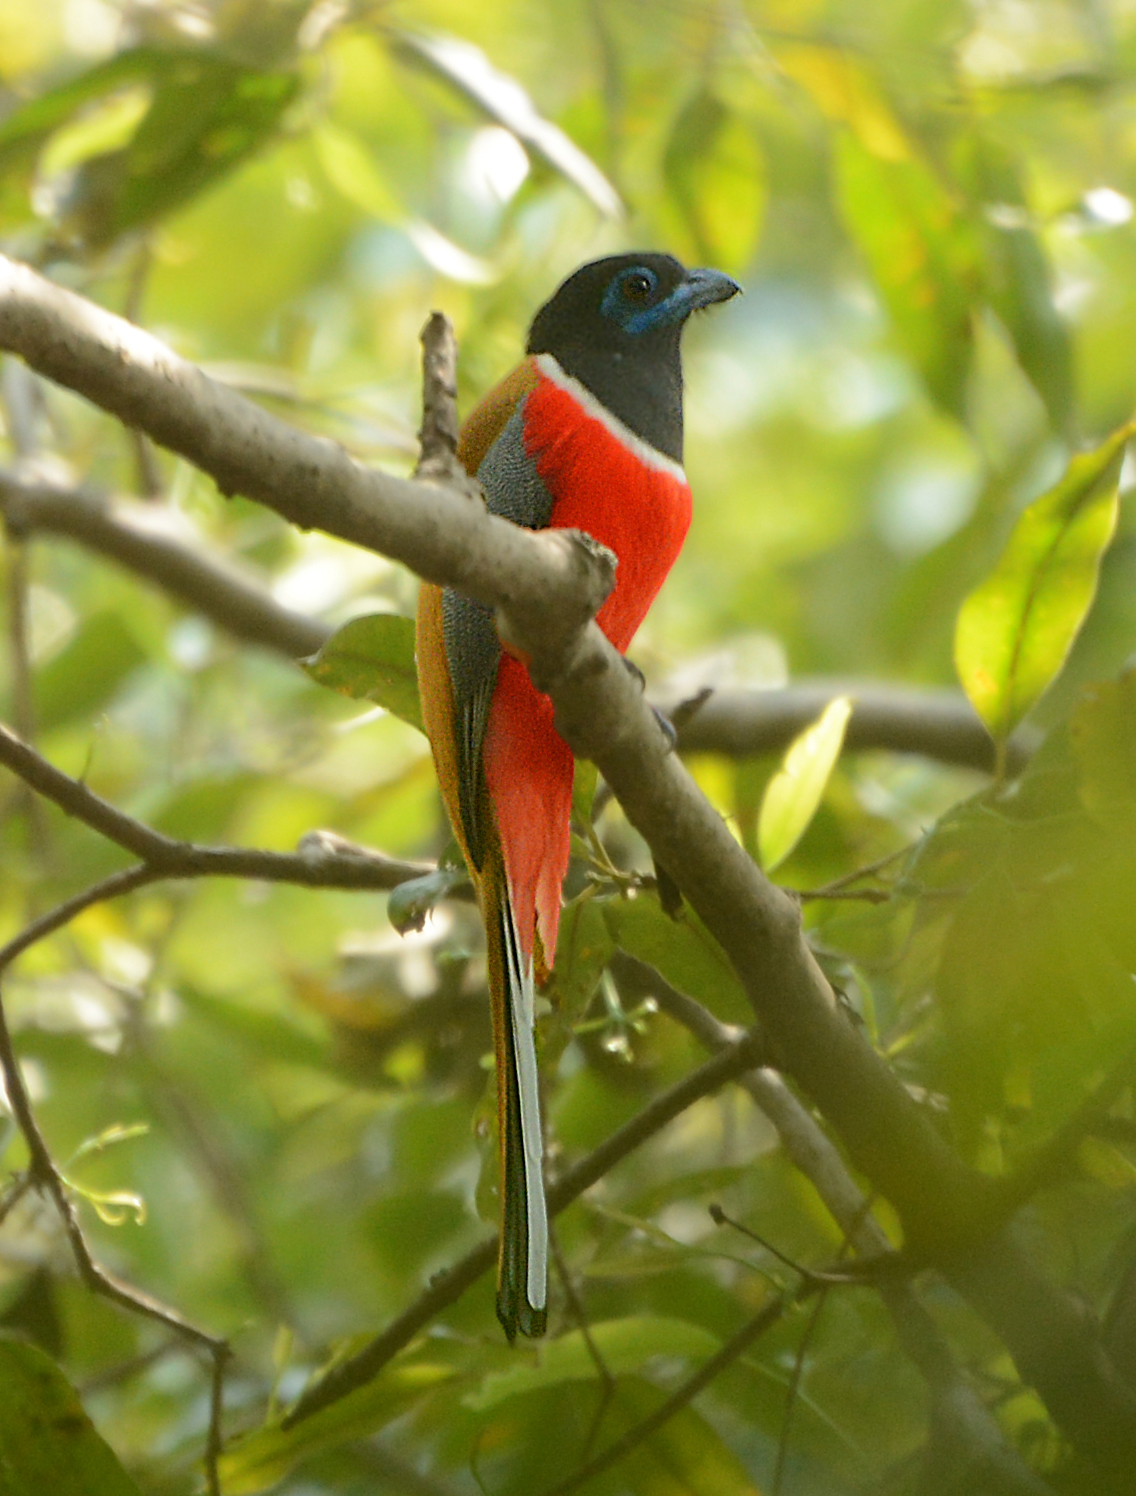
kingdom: Animalia
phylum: Chordata
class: Aves
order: Trogoniformes
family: Trogonidae
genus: Harpactes
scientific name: Harpactes fasciatus
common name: Malabar trogon
